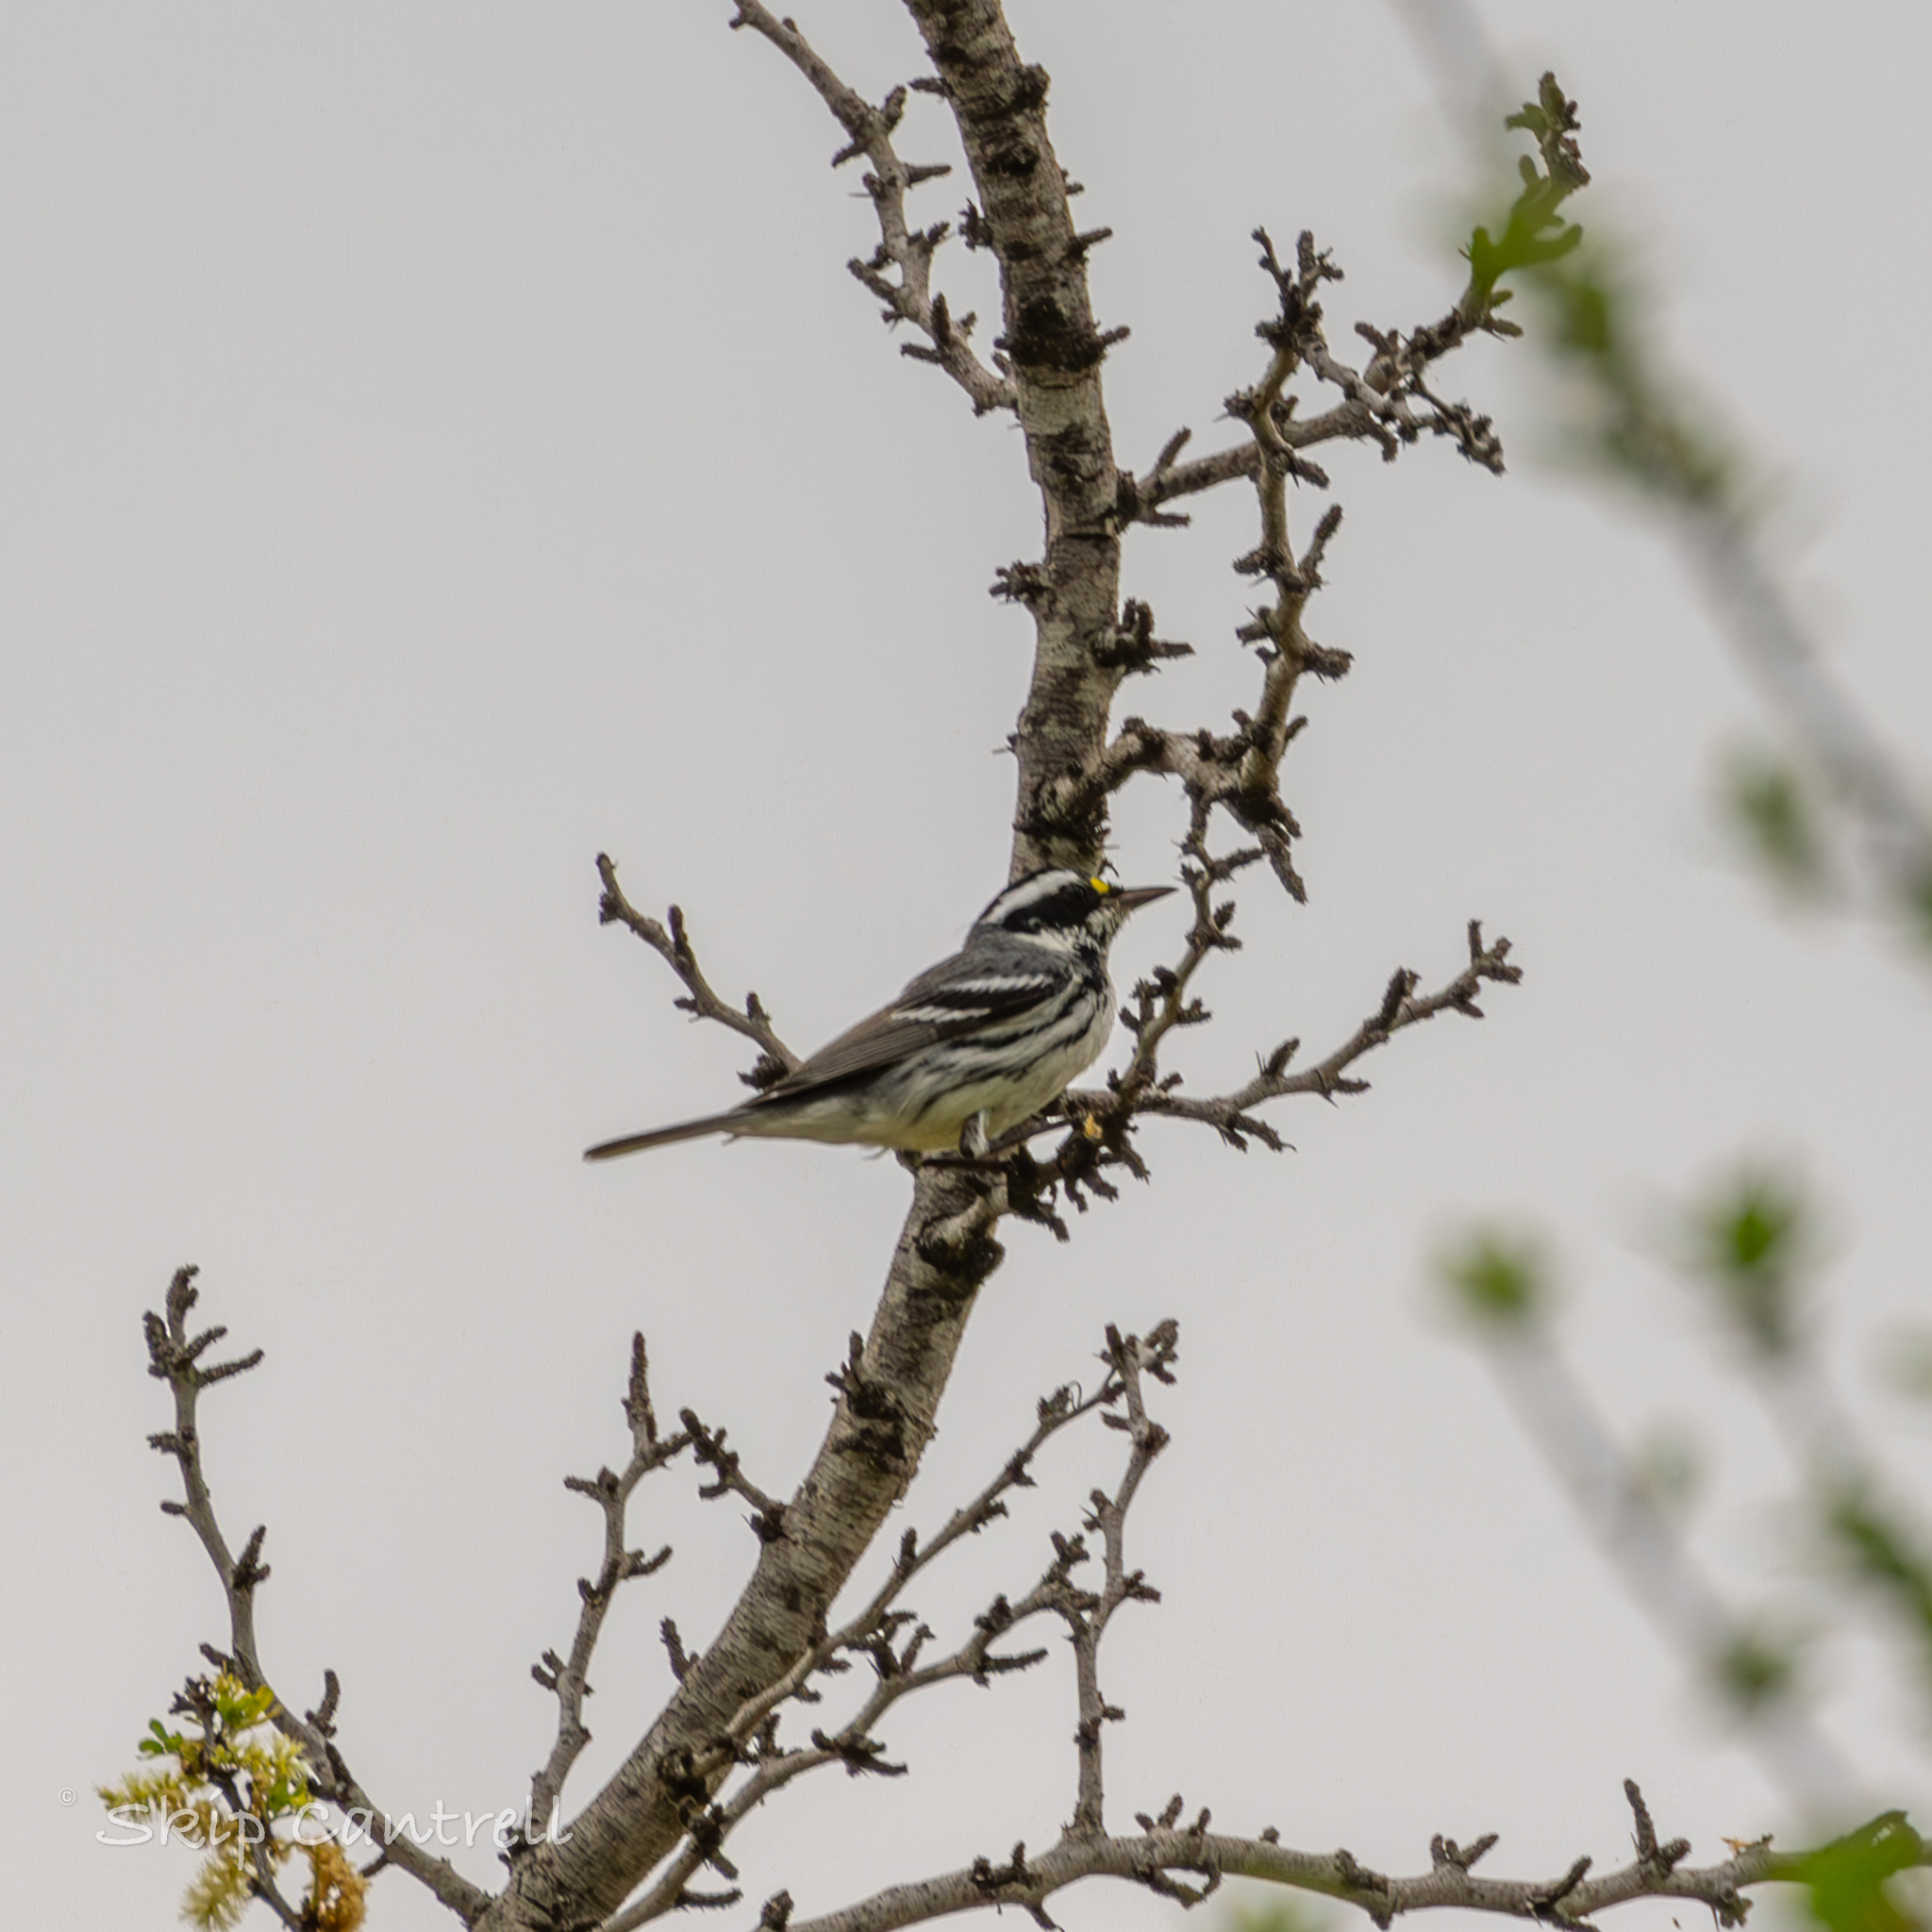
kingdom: Animalia
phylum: Chordata
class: Aves
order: Passeriformes
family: Parulidae
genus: Setophaga
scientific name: Setophaga nigrescens
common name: Black-throated gray warbler
